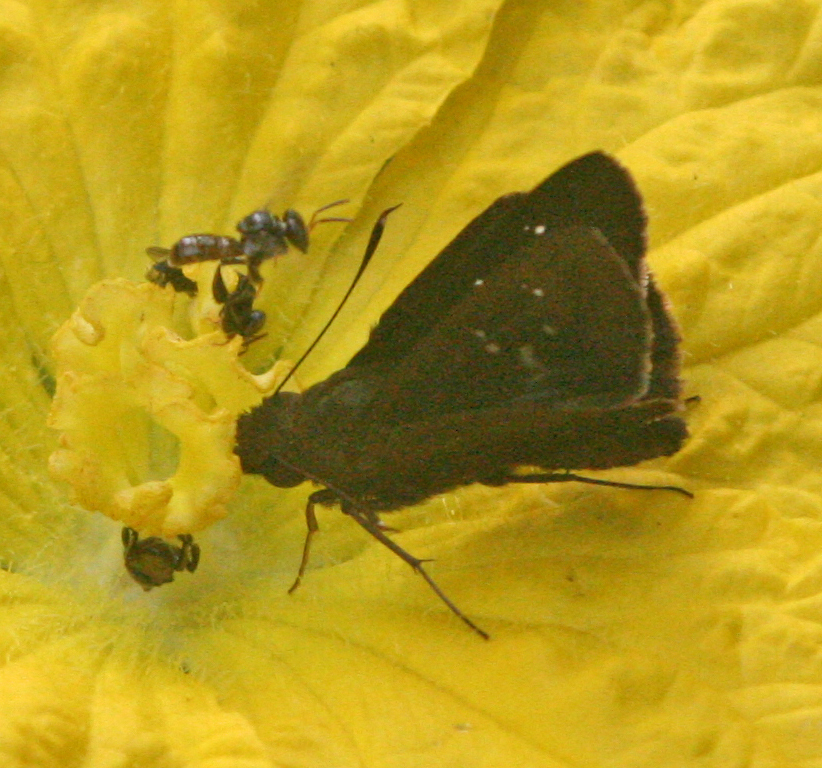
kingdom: Animalia
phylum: Arthropoda
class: Insecta
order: Lepidoptera
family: Hesperiidae
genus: Baoris
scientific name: Baoris oceia
